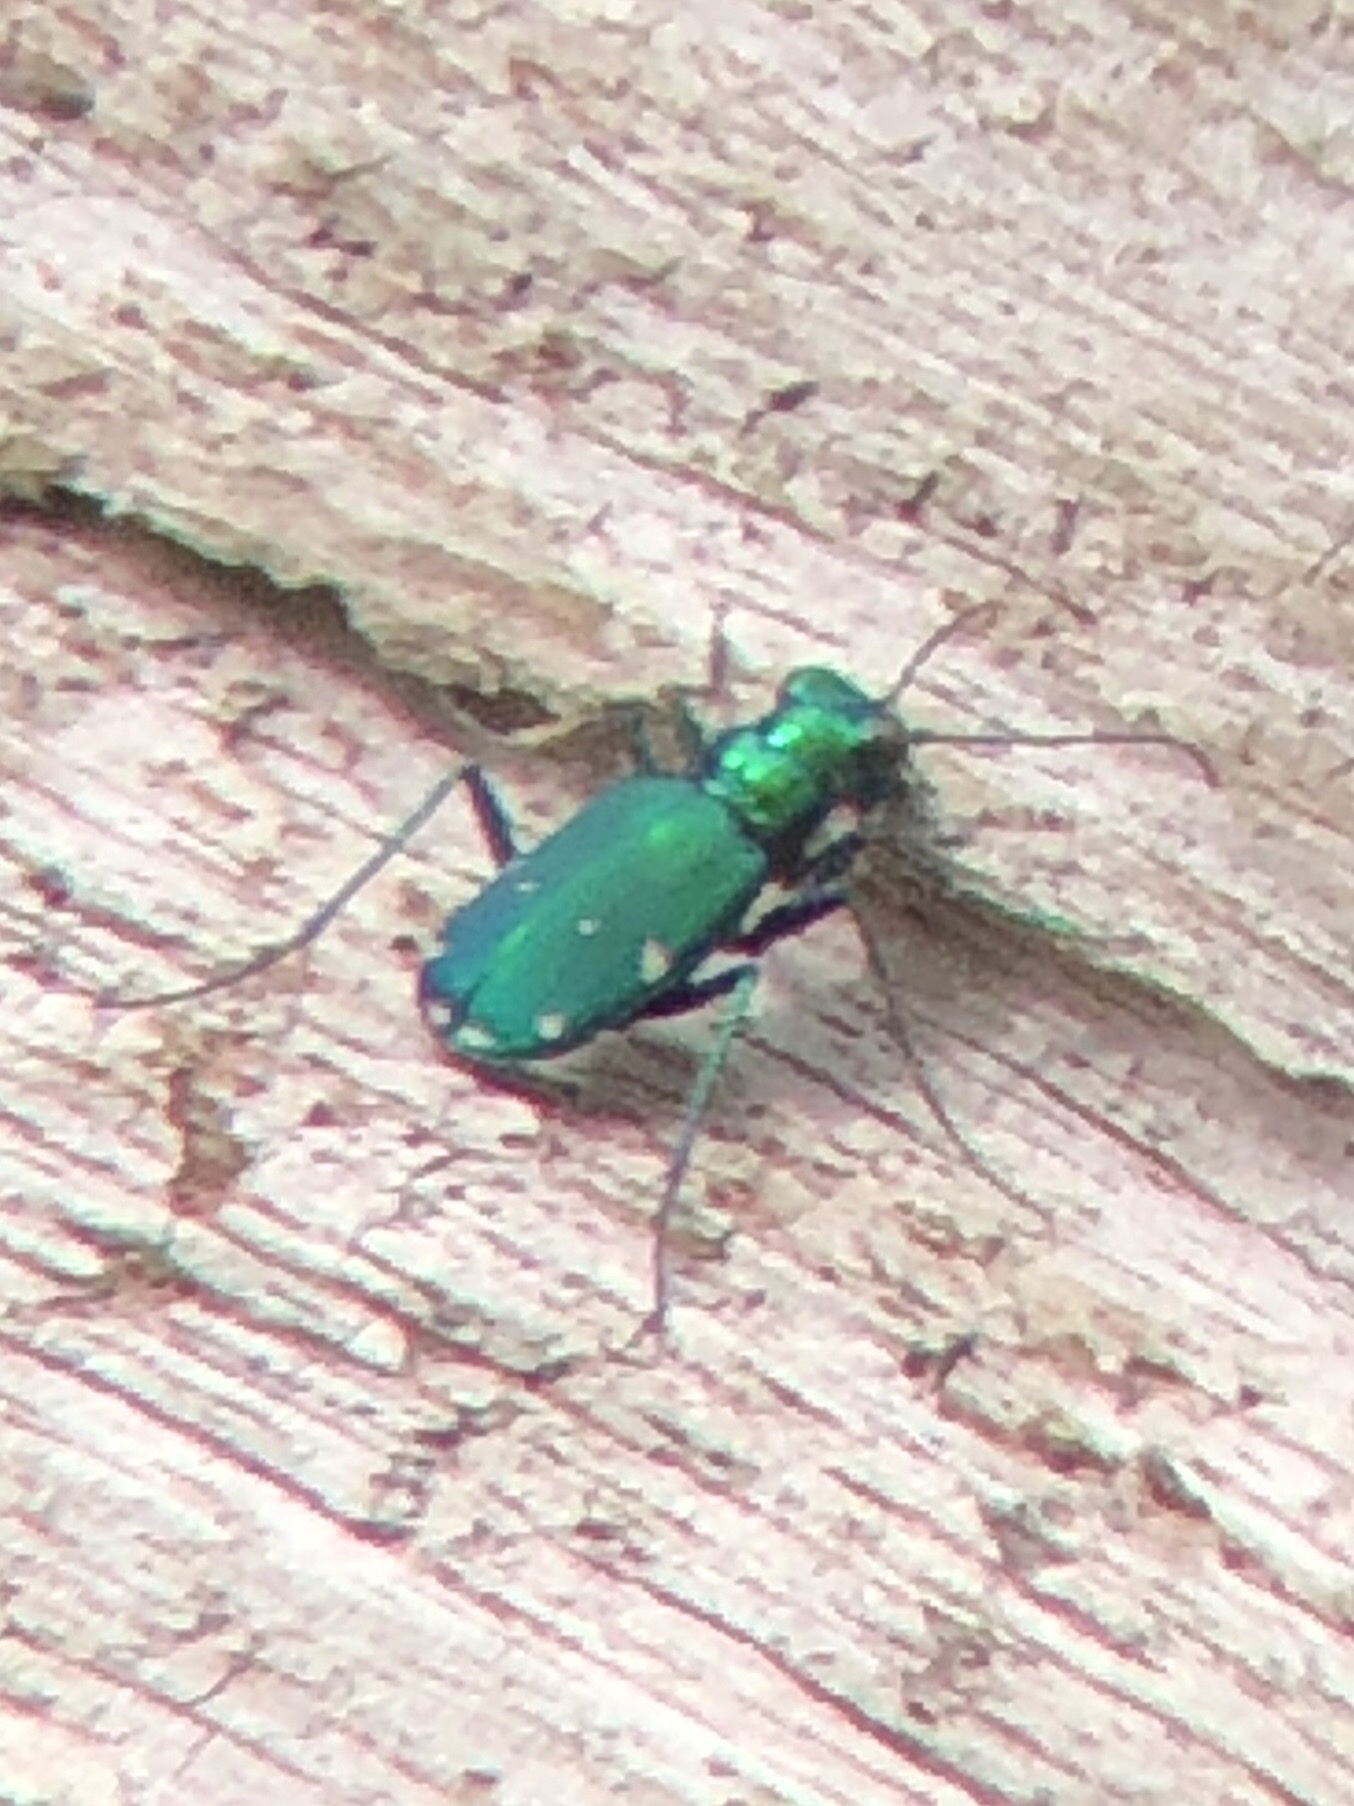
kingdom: Animalia
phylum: Arthropoda
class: Insecta
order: Coleoptera
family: Carabidae
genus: Cicindela
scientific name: Cicindela sexguttata
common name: Six-spotted tiger beetle
